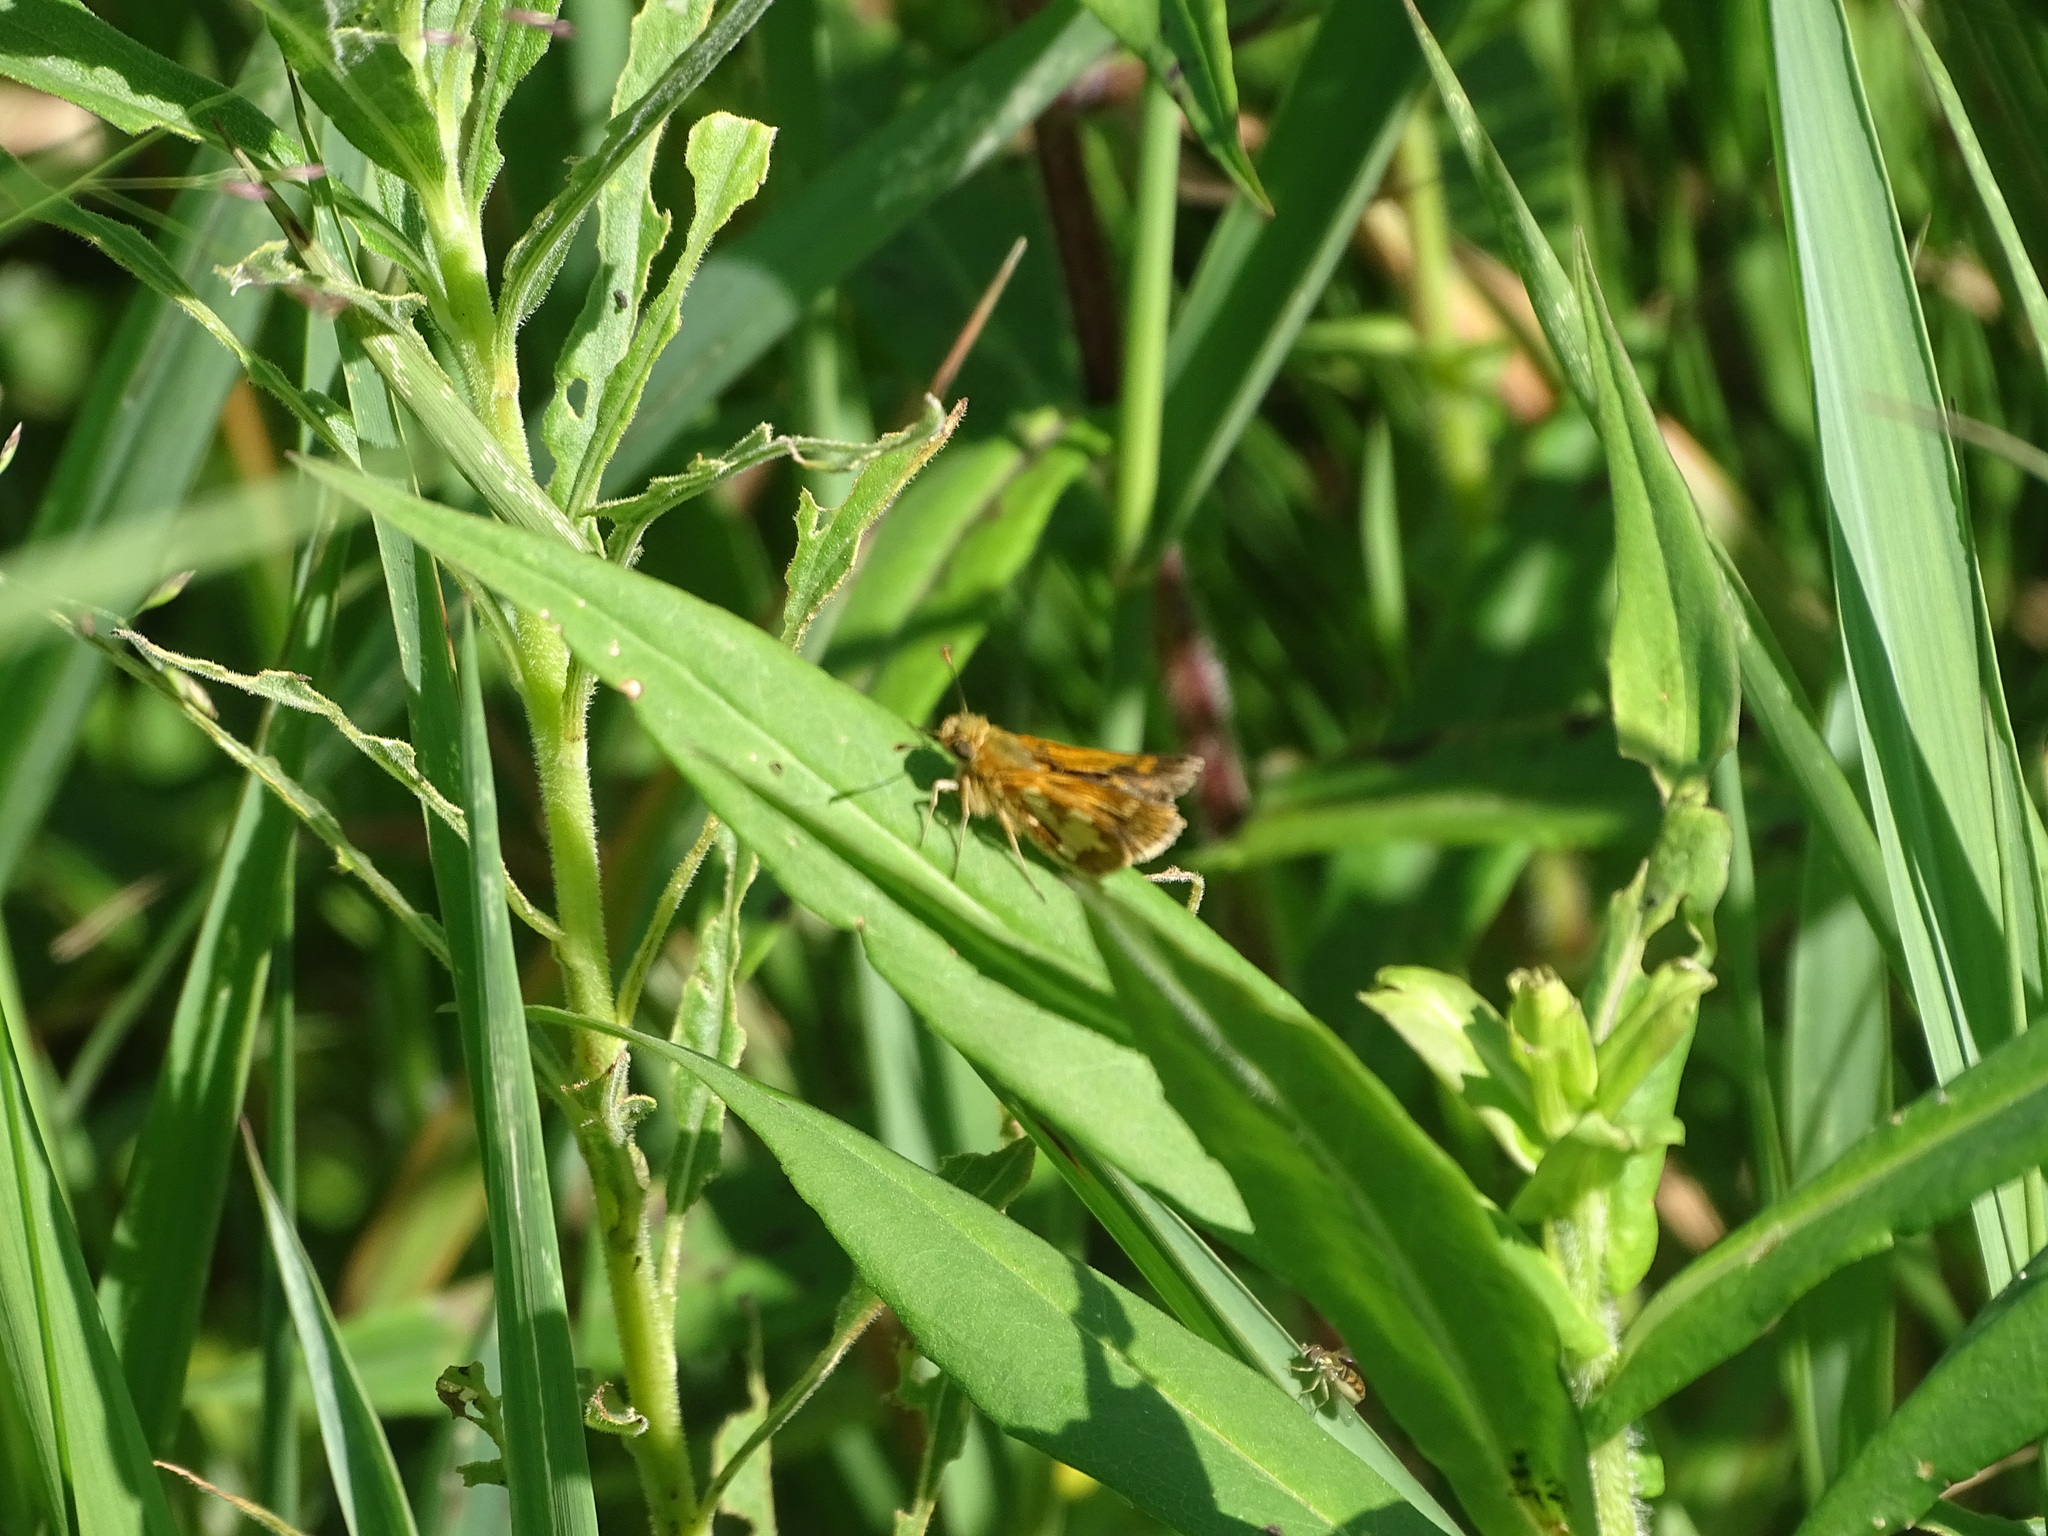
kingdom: Animalia
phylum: Arthropoda
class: Insecta
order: Lepidoptera
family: Hesperiidae
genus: Polites
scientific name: Polites coras
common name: Peck's skipper
